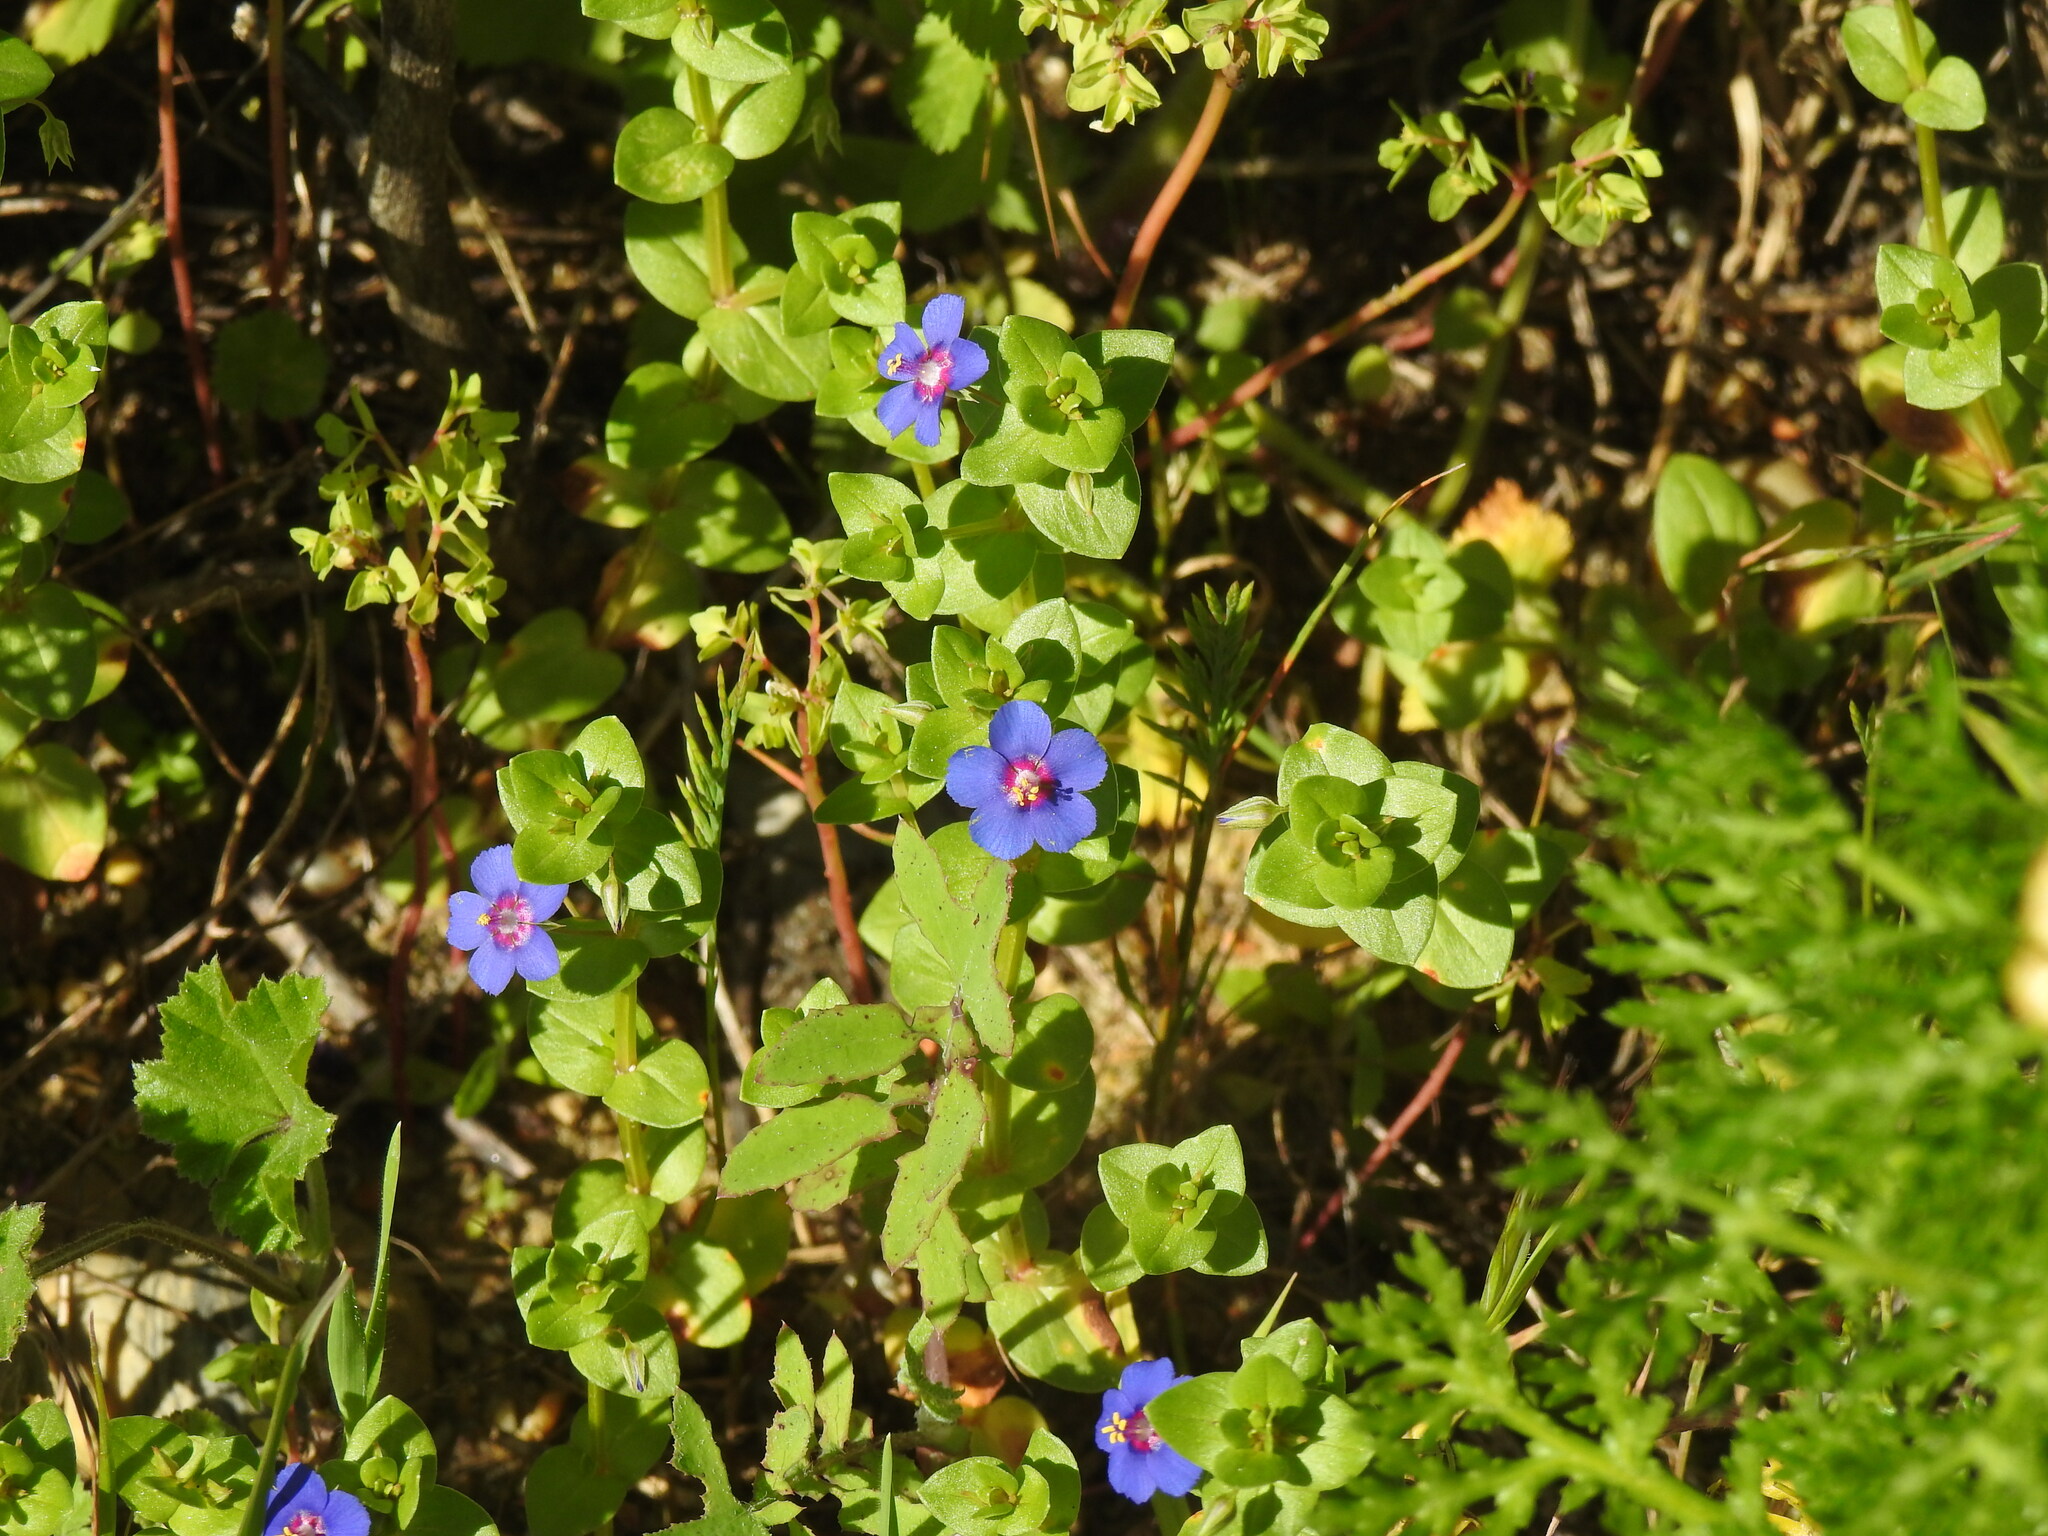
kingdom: Plantae
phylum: Tracheophyta
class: Magnoliopsida
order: Ericales
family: Primulaceae
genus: Lysimachia
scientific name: Lysimachia loeflingii
